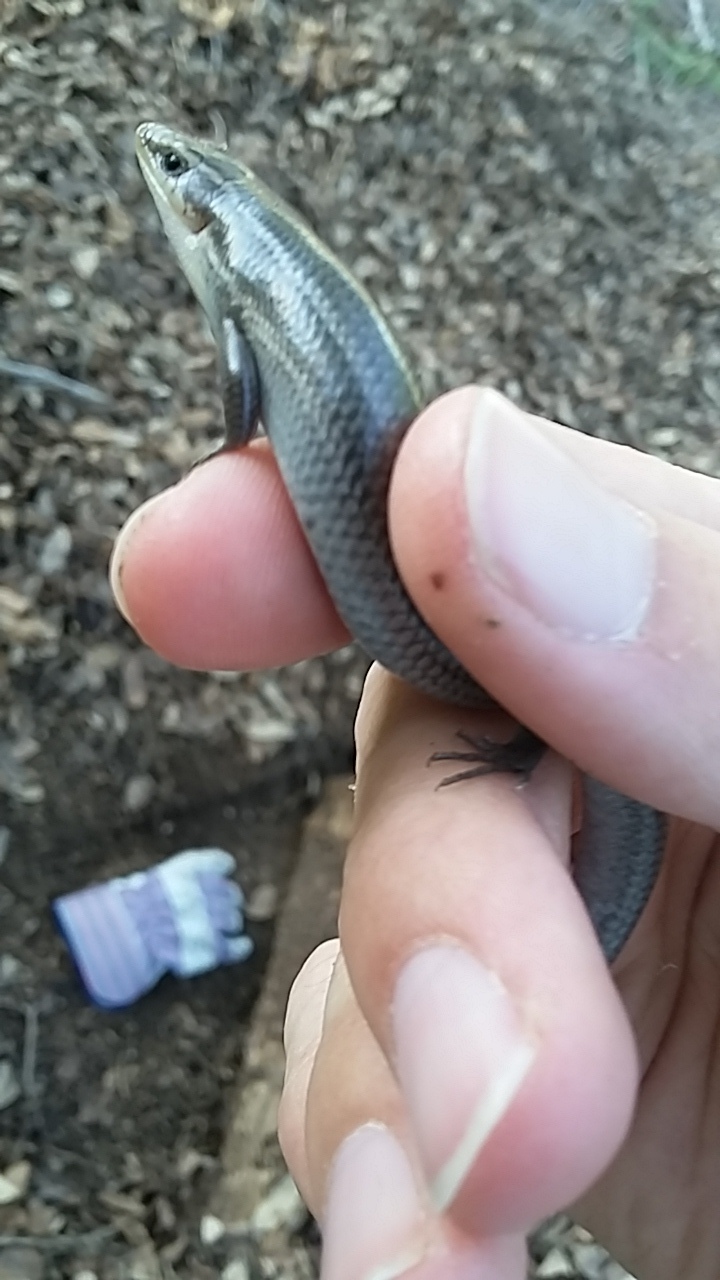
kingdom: Animalia
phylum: Chordata
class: Squamata
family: Scincidae
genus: Plestiodon
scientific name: Plestiodon tetragrammus
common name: Four-lined skink
